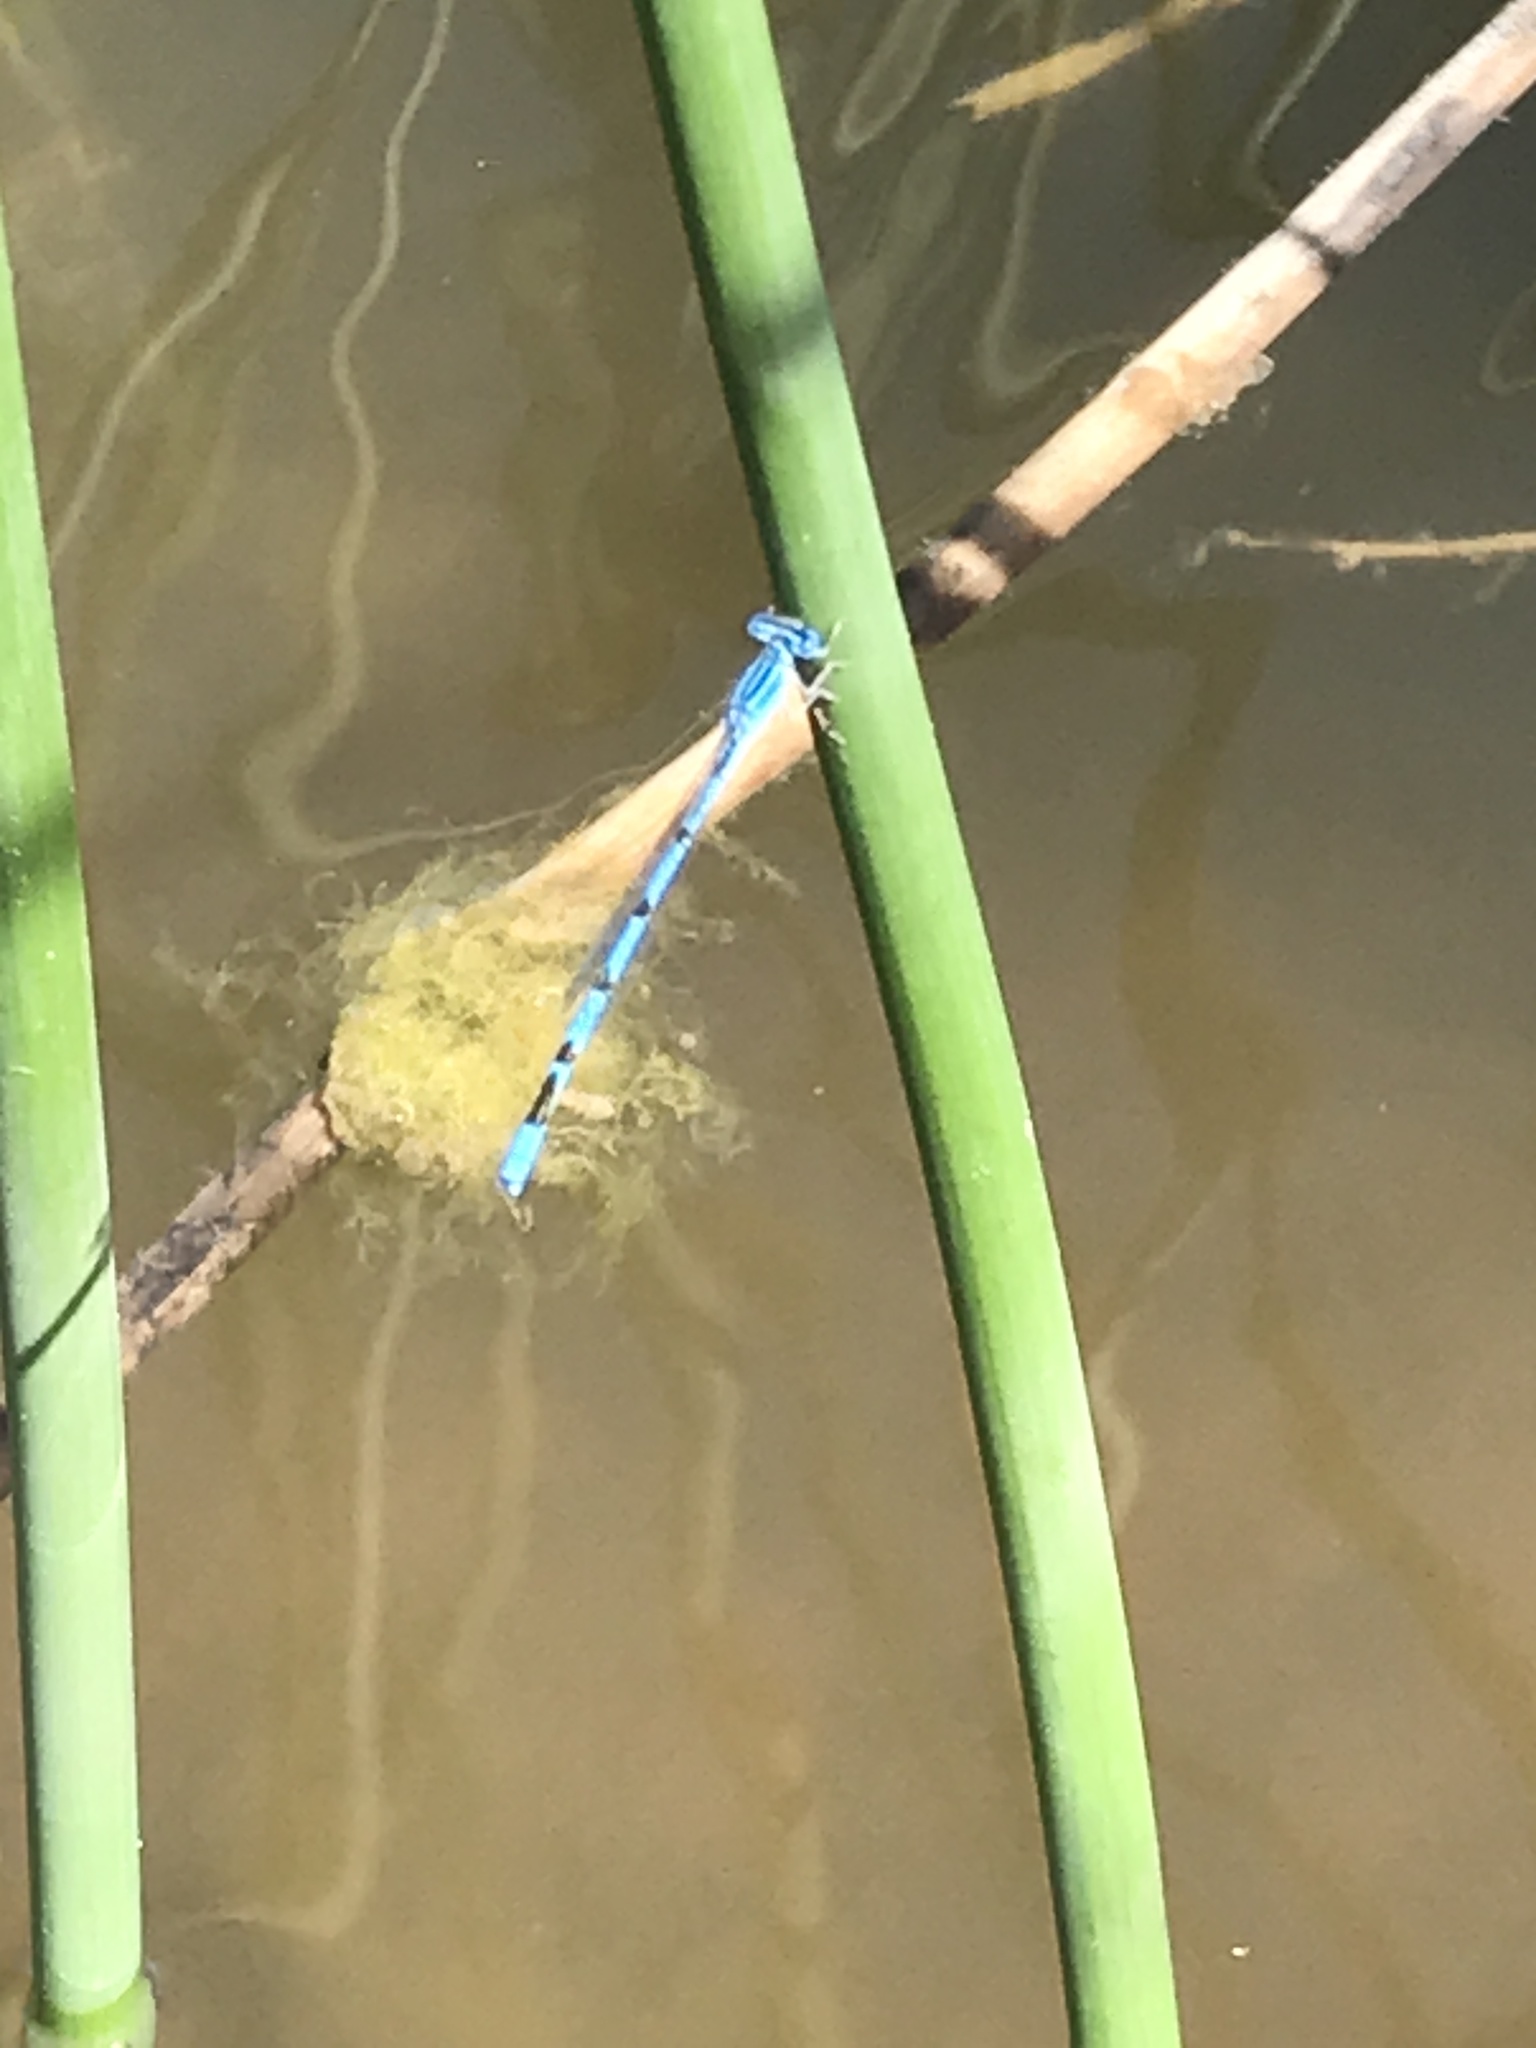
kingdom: Animalia
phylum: Arthropoda
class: Insecta
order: Odonata
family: Coenagrionidae
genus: Enallagma
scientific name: Enallagma basidens
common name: Double-striped bluet
